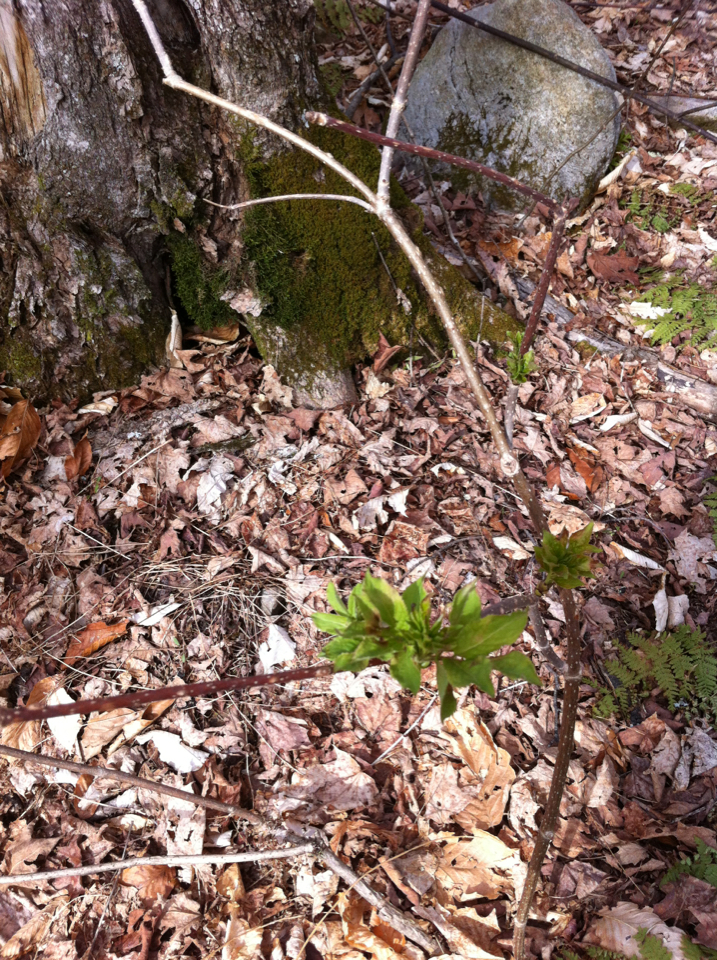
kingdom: Plantae
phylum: Tracheophyta
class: Magnoliopsida
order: Dipsacales
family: Viburnaceae
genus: Sambucus
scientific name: Sambucus racemosa
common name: Red-berried elder
